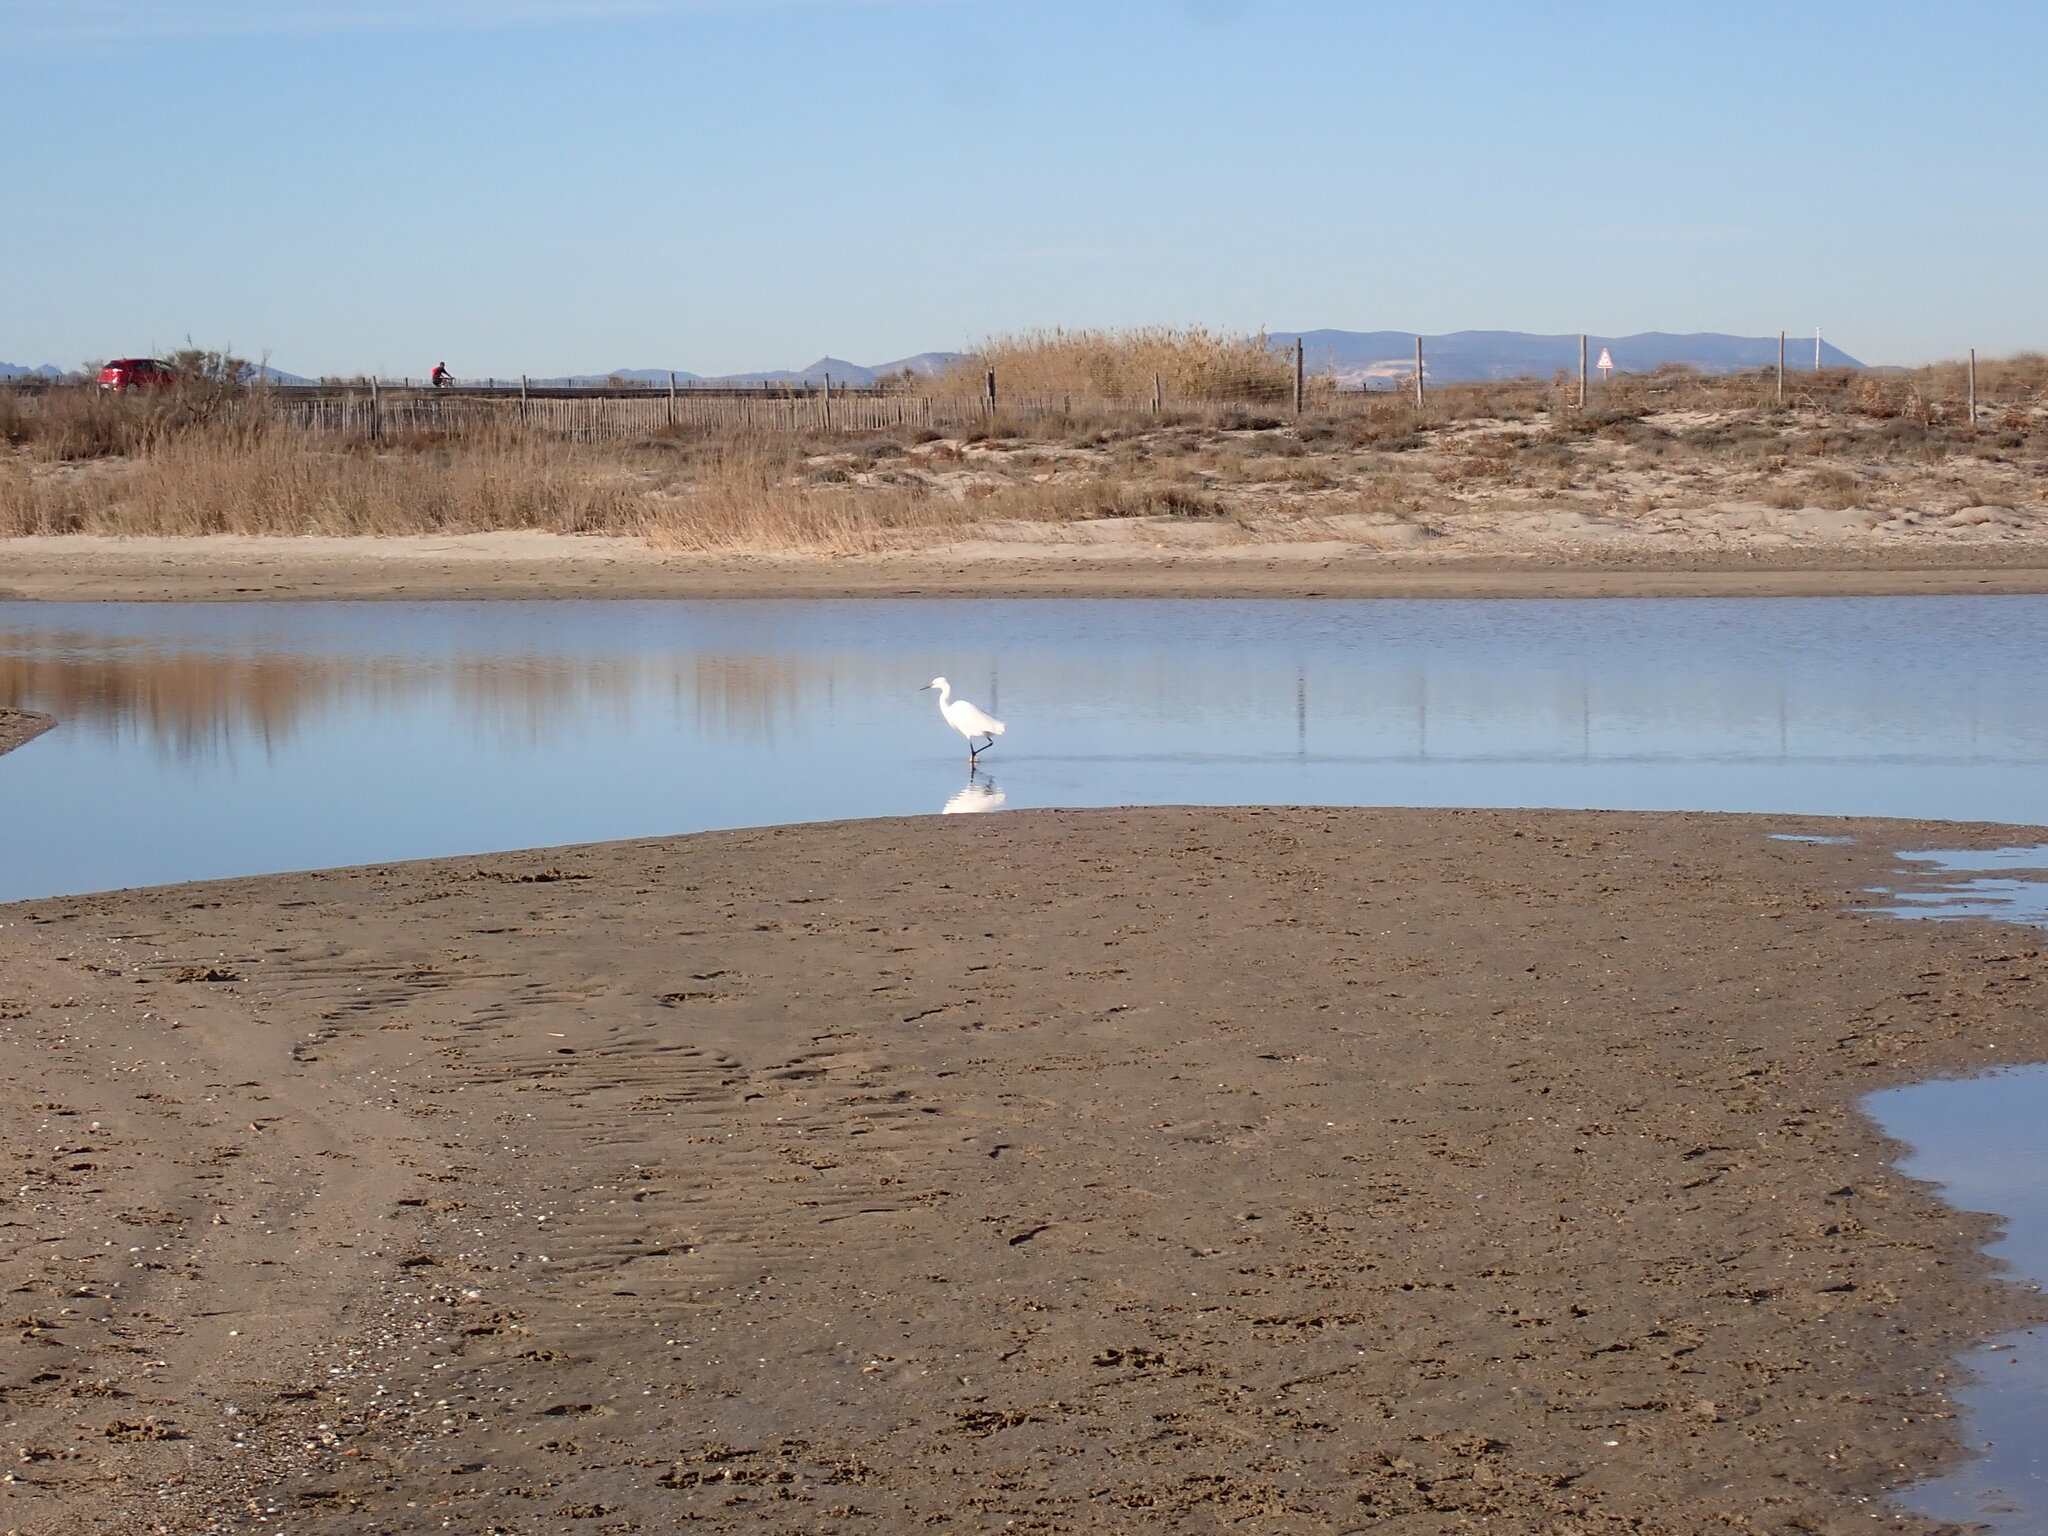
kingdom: Animalia
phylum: Chordata
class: Aves
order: Pelecaniformes
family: Ardeidae
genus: Egretta
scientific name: Egretta garzetta
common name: Little egret
